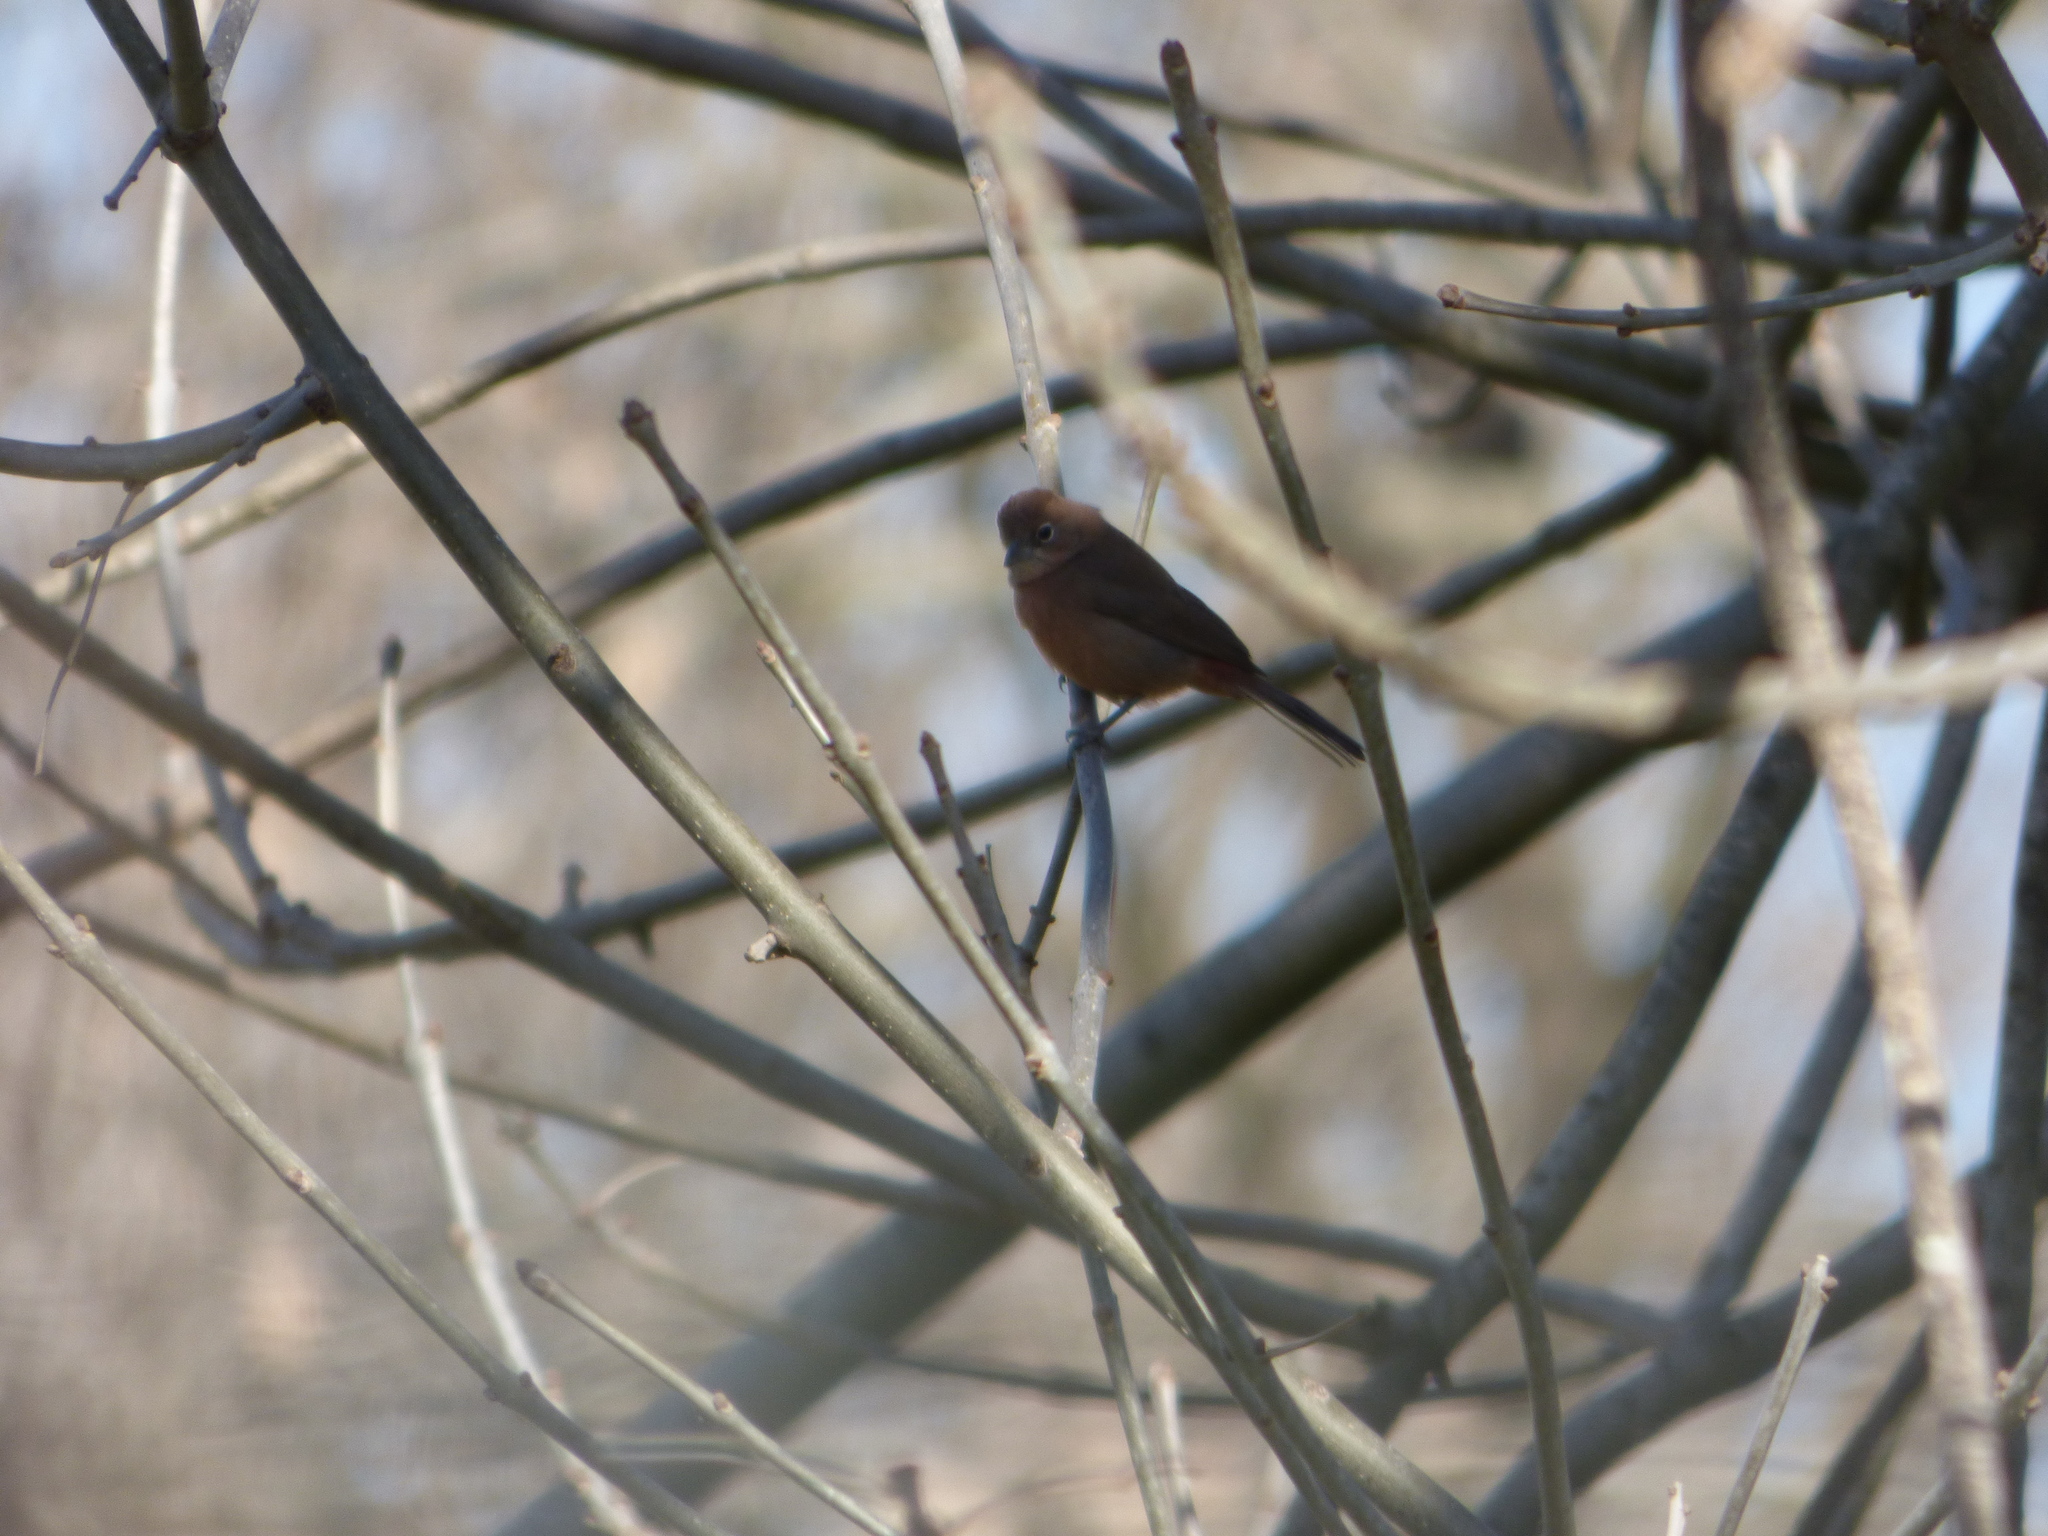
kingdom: Animalia
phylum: Chordata
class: Aves
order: Passeriformes
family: Thraupidae
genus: Coryphospingus
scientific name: Coryphospingus cucullatus
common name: Red pileated finch
